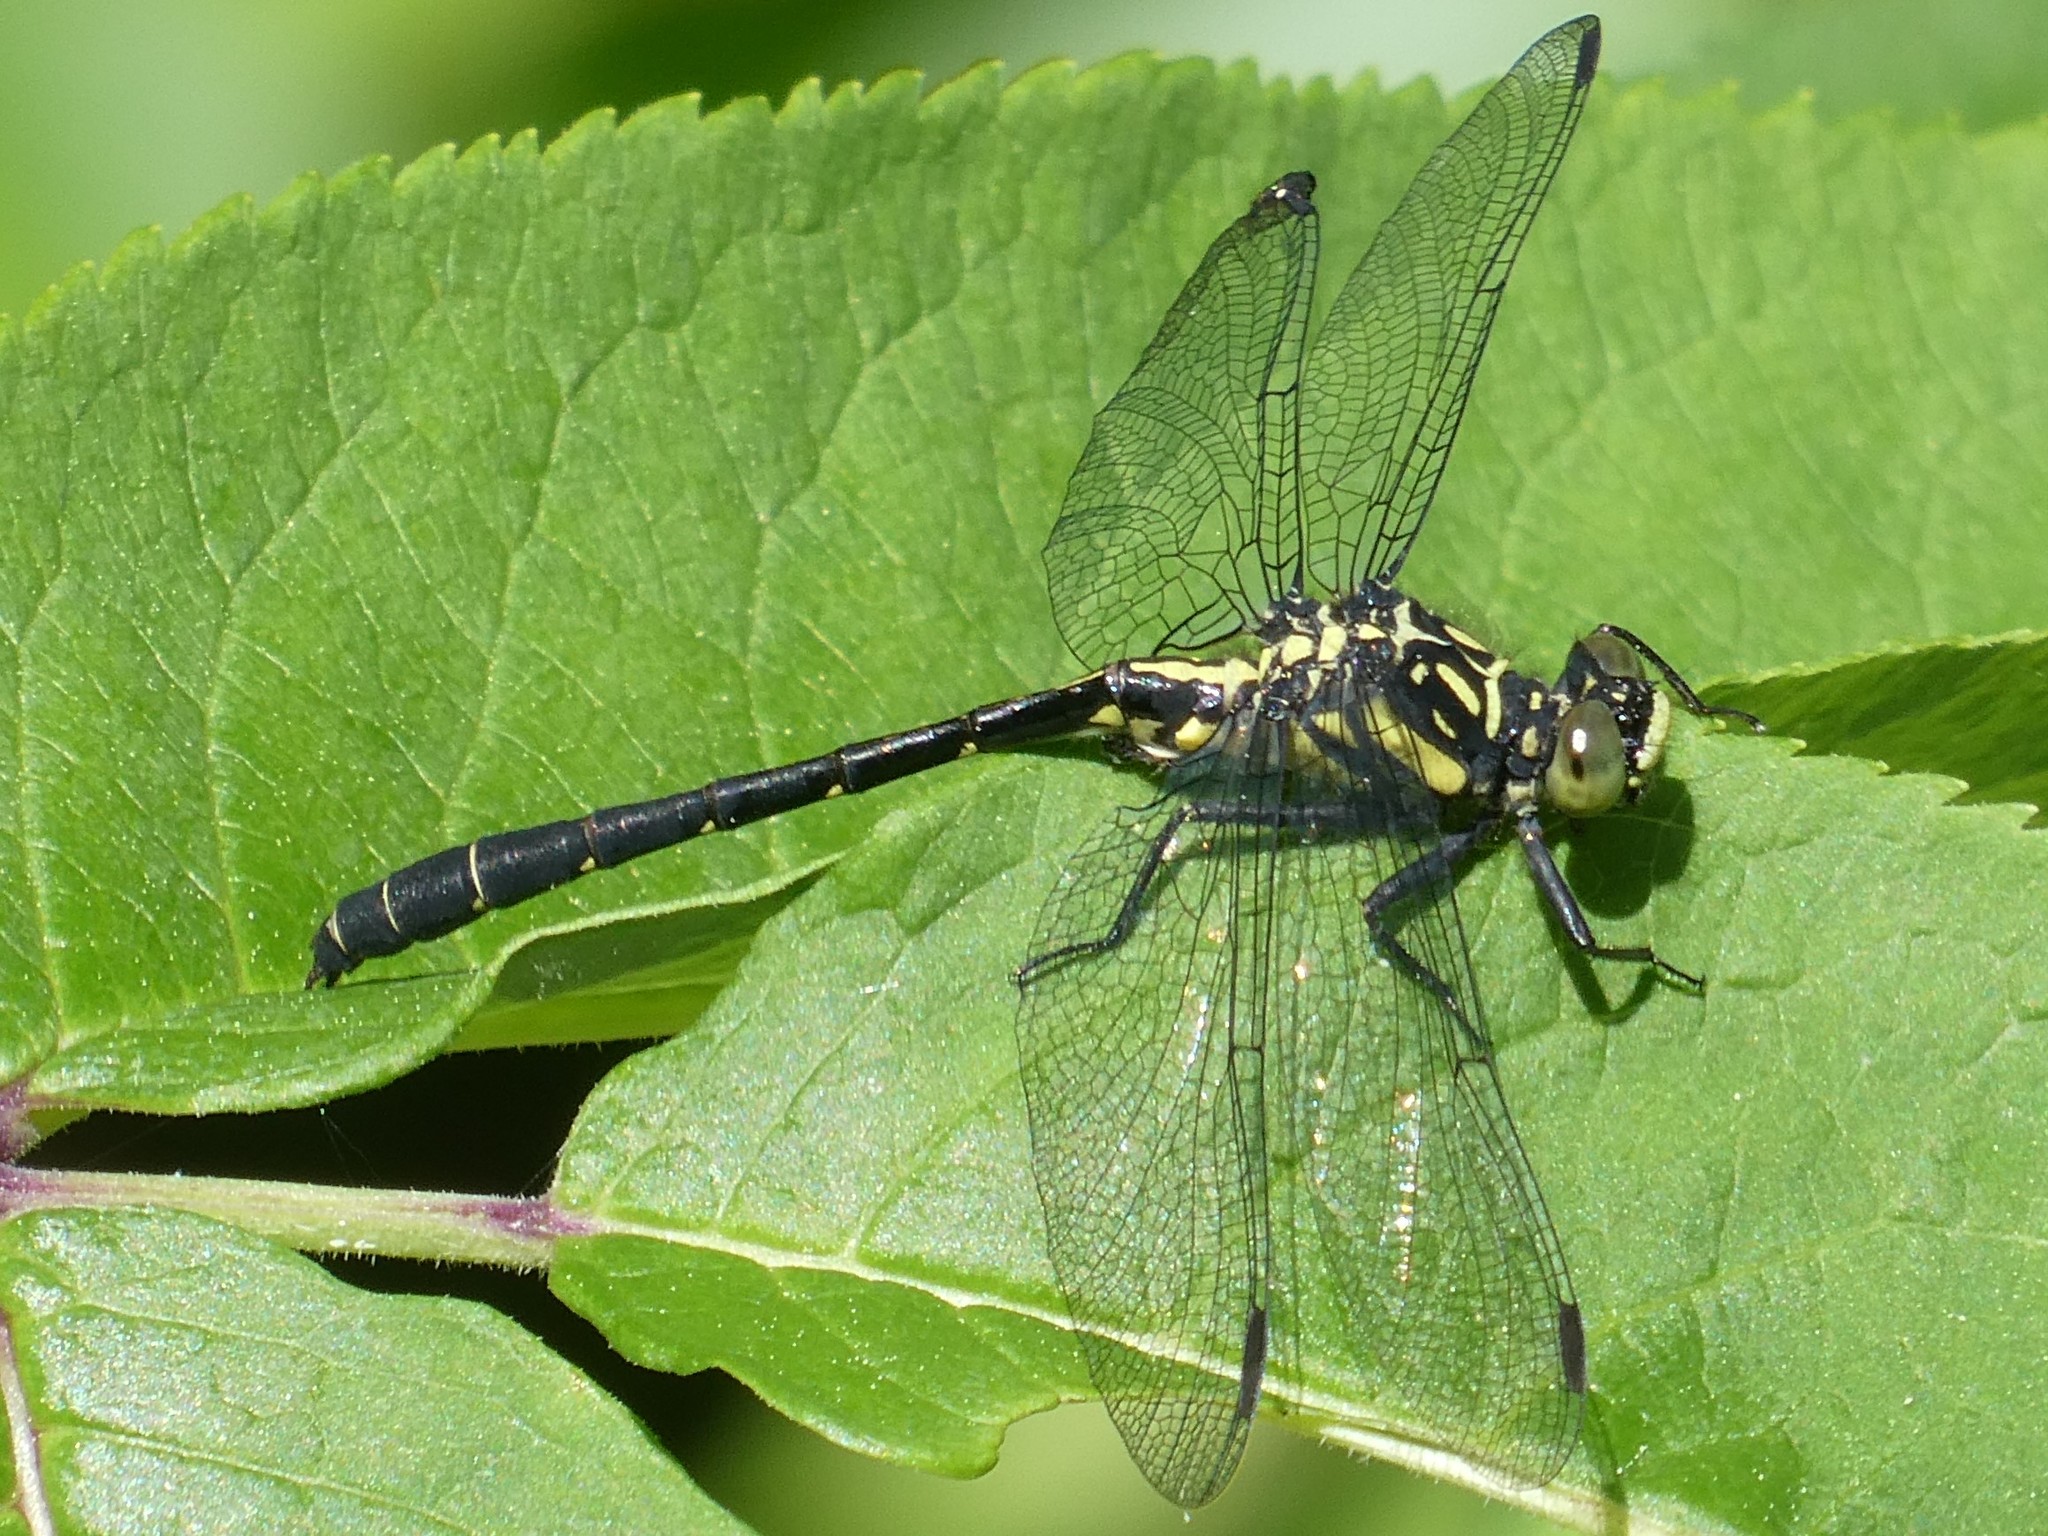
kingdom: Animalia
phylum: Arthropoda
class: Insecta
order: Odonata
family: Gomphidae
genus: Lanthus
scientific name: Lanthus parvulus
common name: Northern pygmy clubtail
